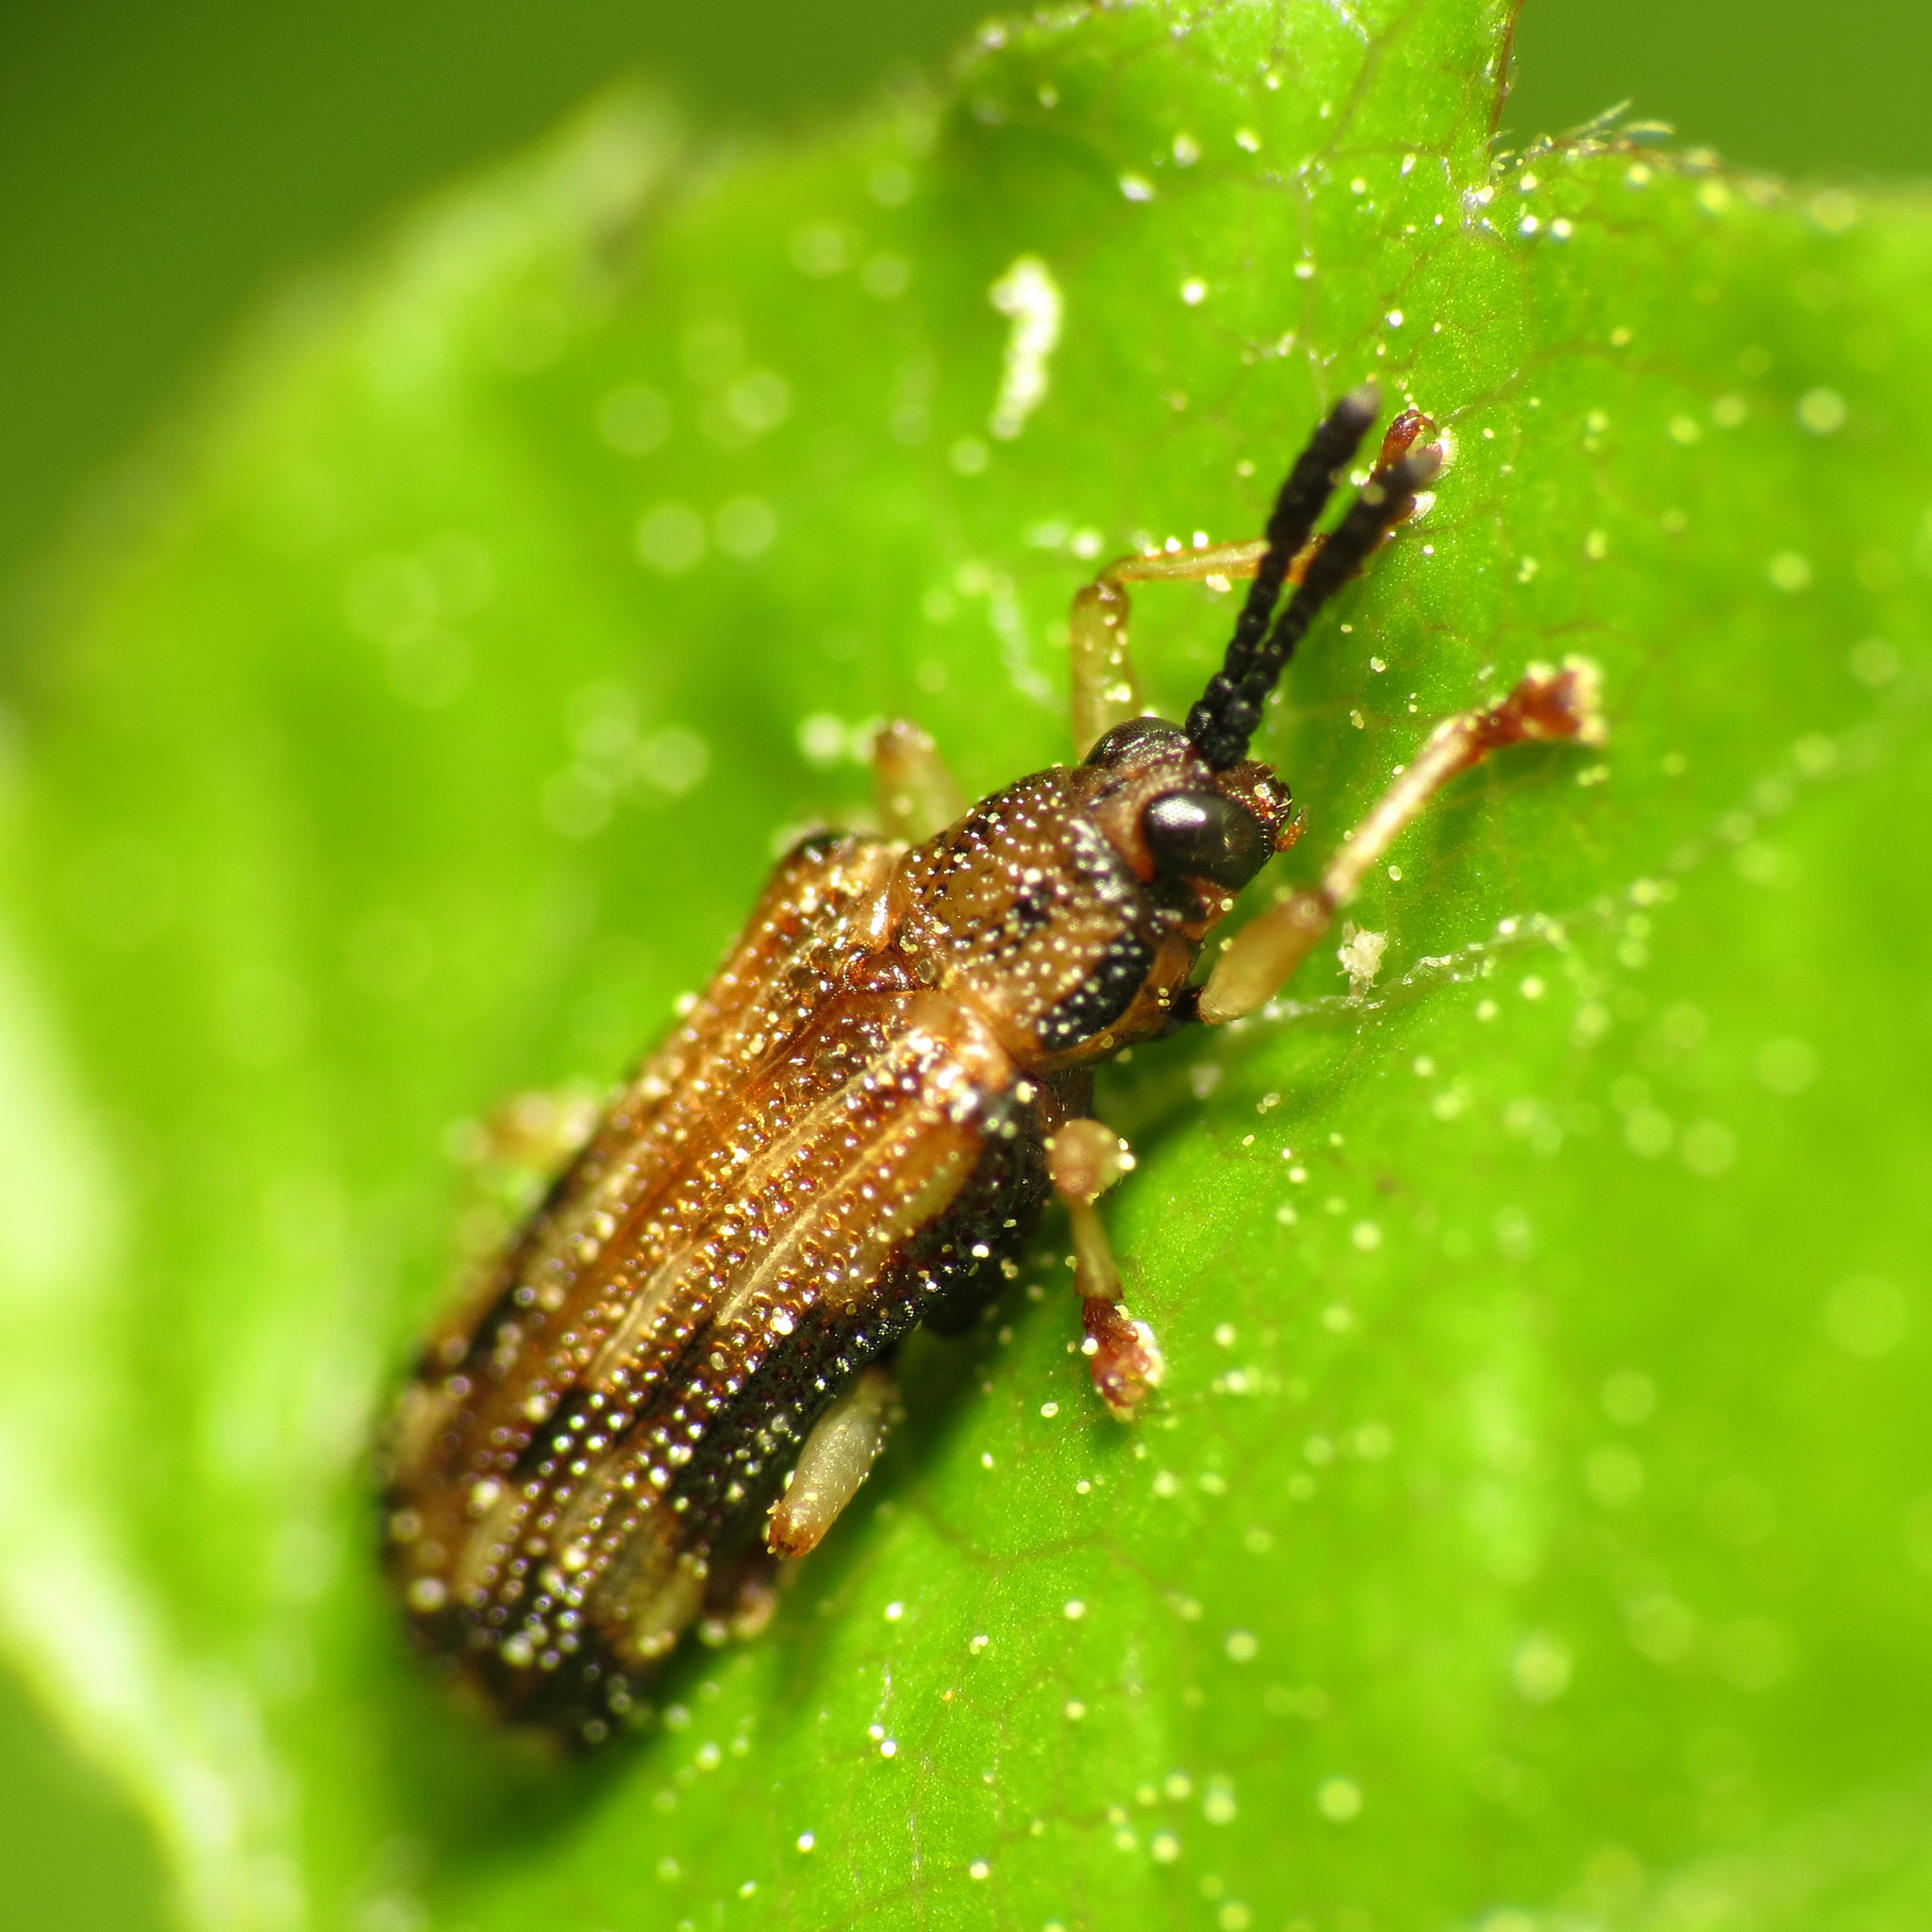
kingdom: Animalia
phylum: Arthropoda
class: Insecta
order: Coleoptera
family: Chrysomelidae
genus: Sumitrosis
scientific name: Sumitrosis inaequalis
